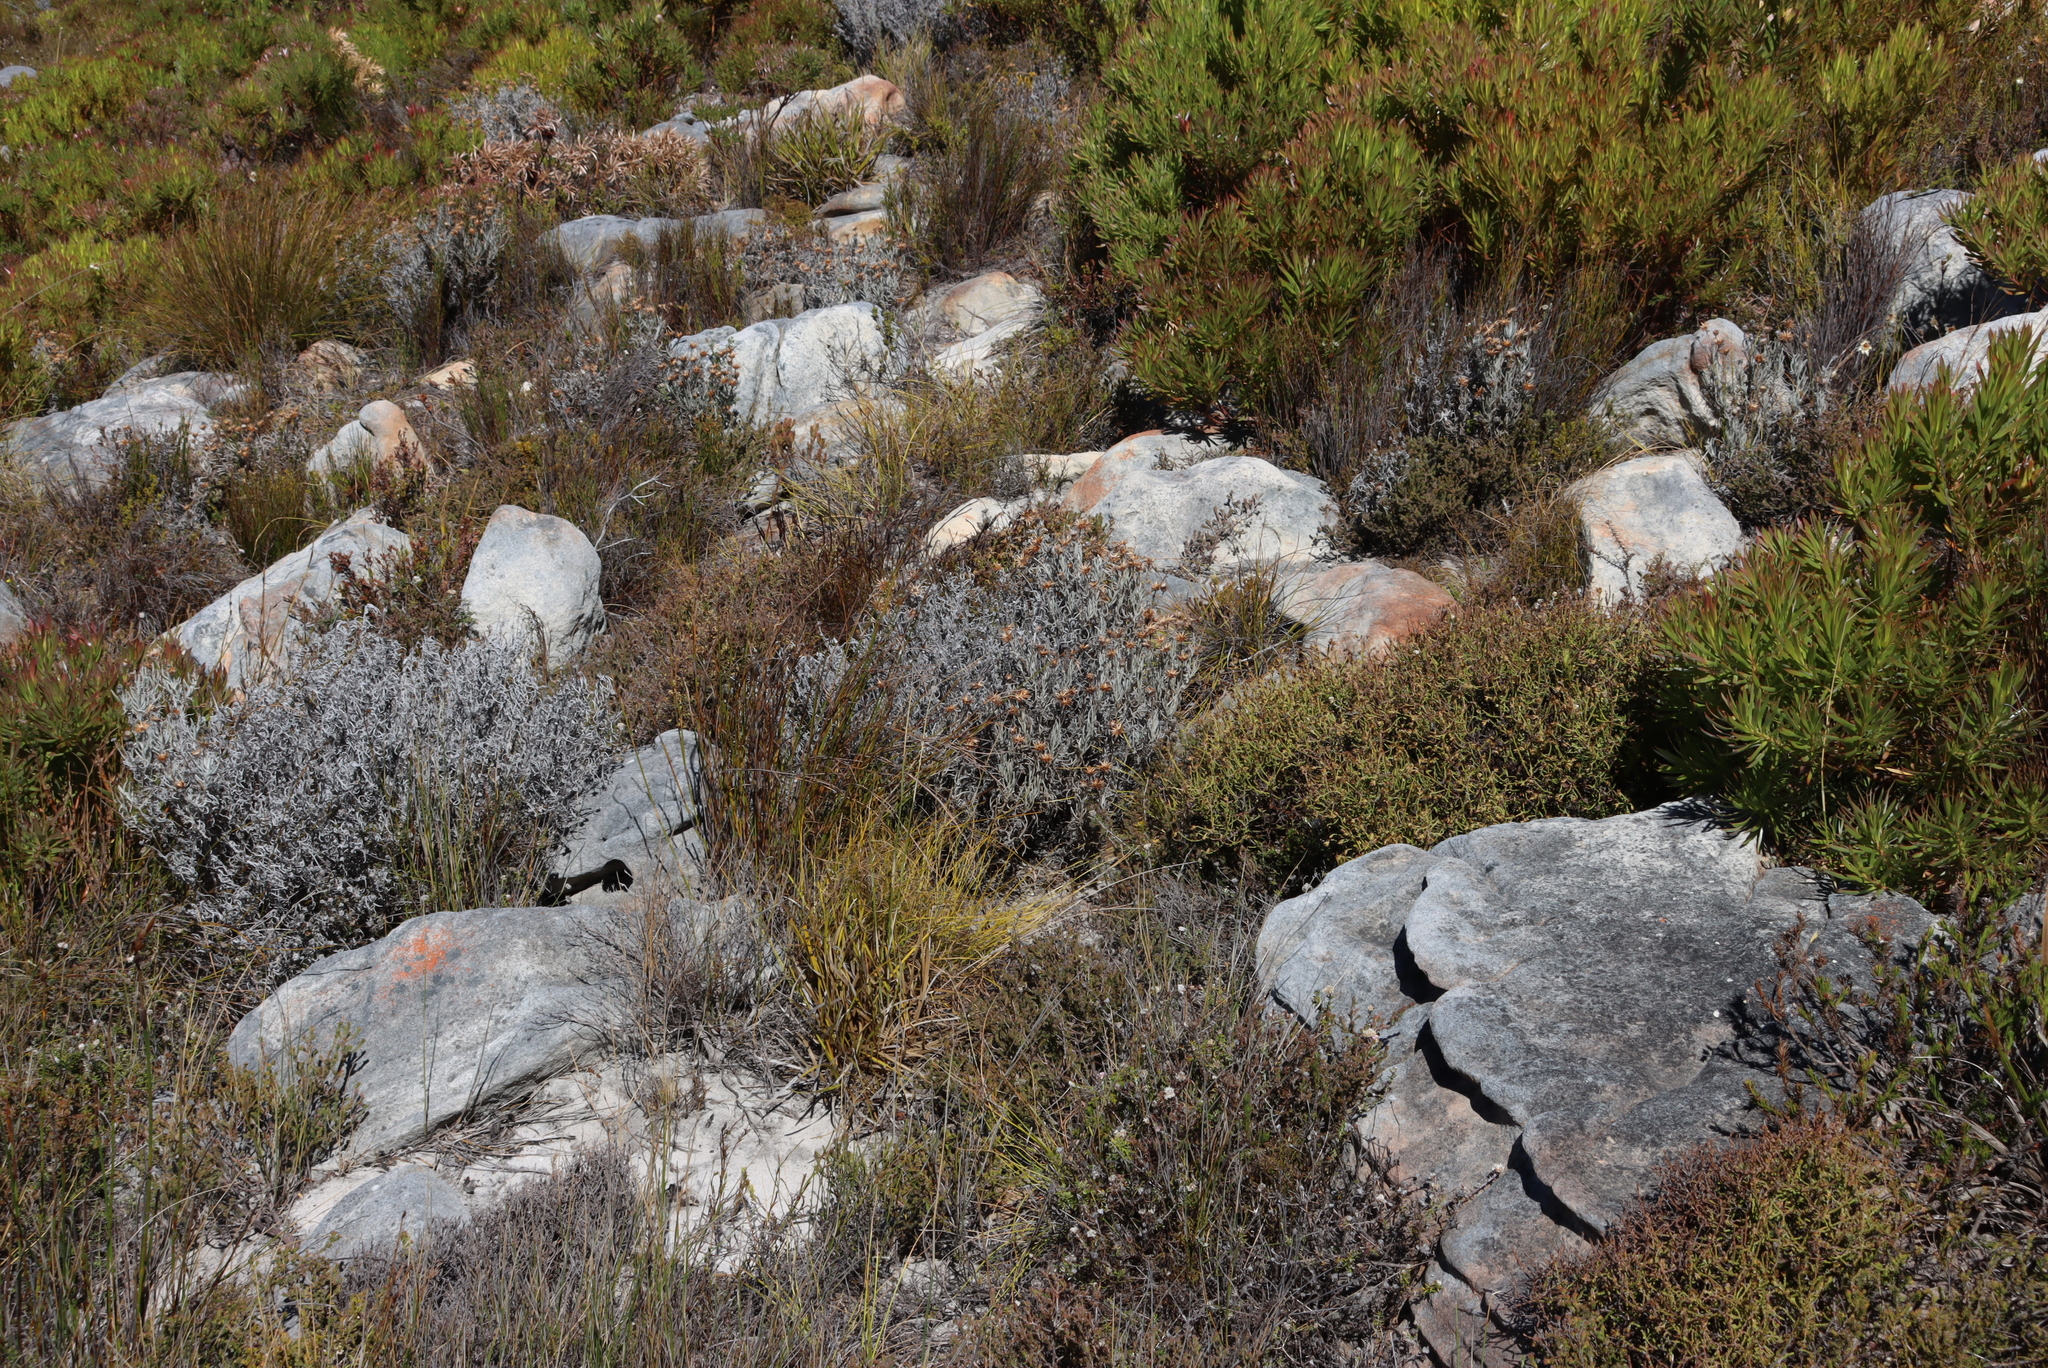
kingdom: Plantae
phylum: Tracheophyta
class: Magnoliopsida
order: Asterales
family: Asteraceae
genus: Syncarpha
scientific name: Syncarpha gnaphaloides
